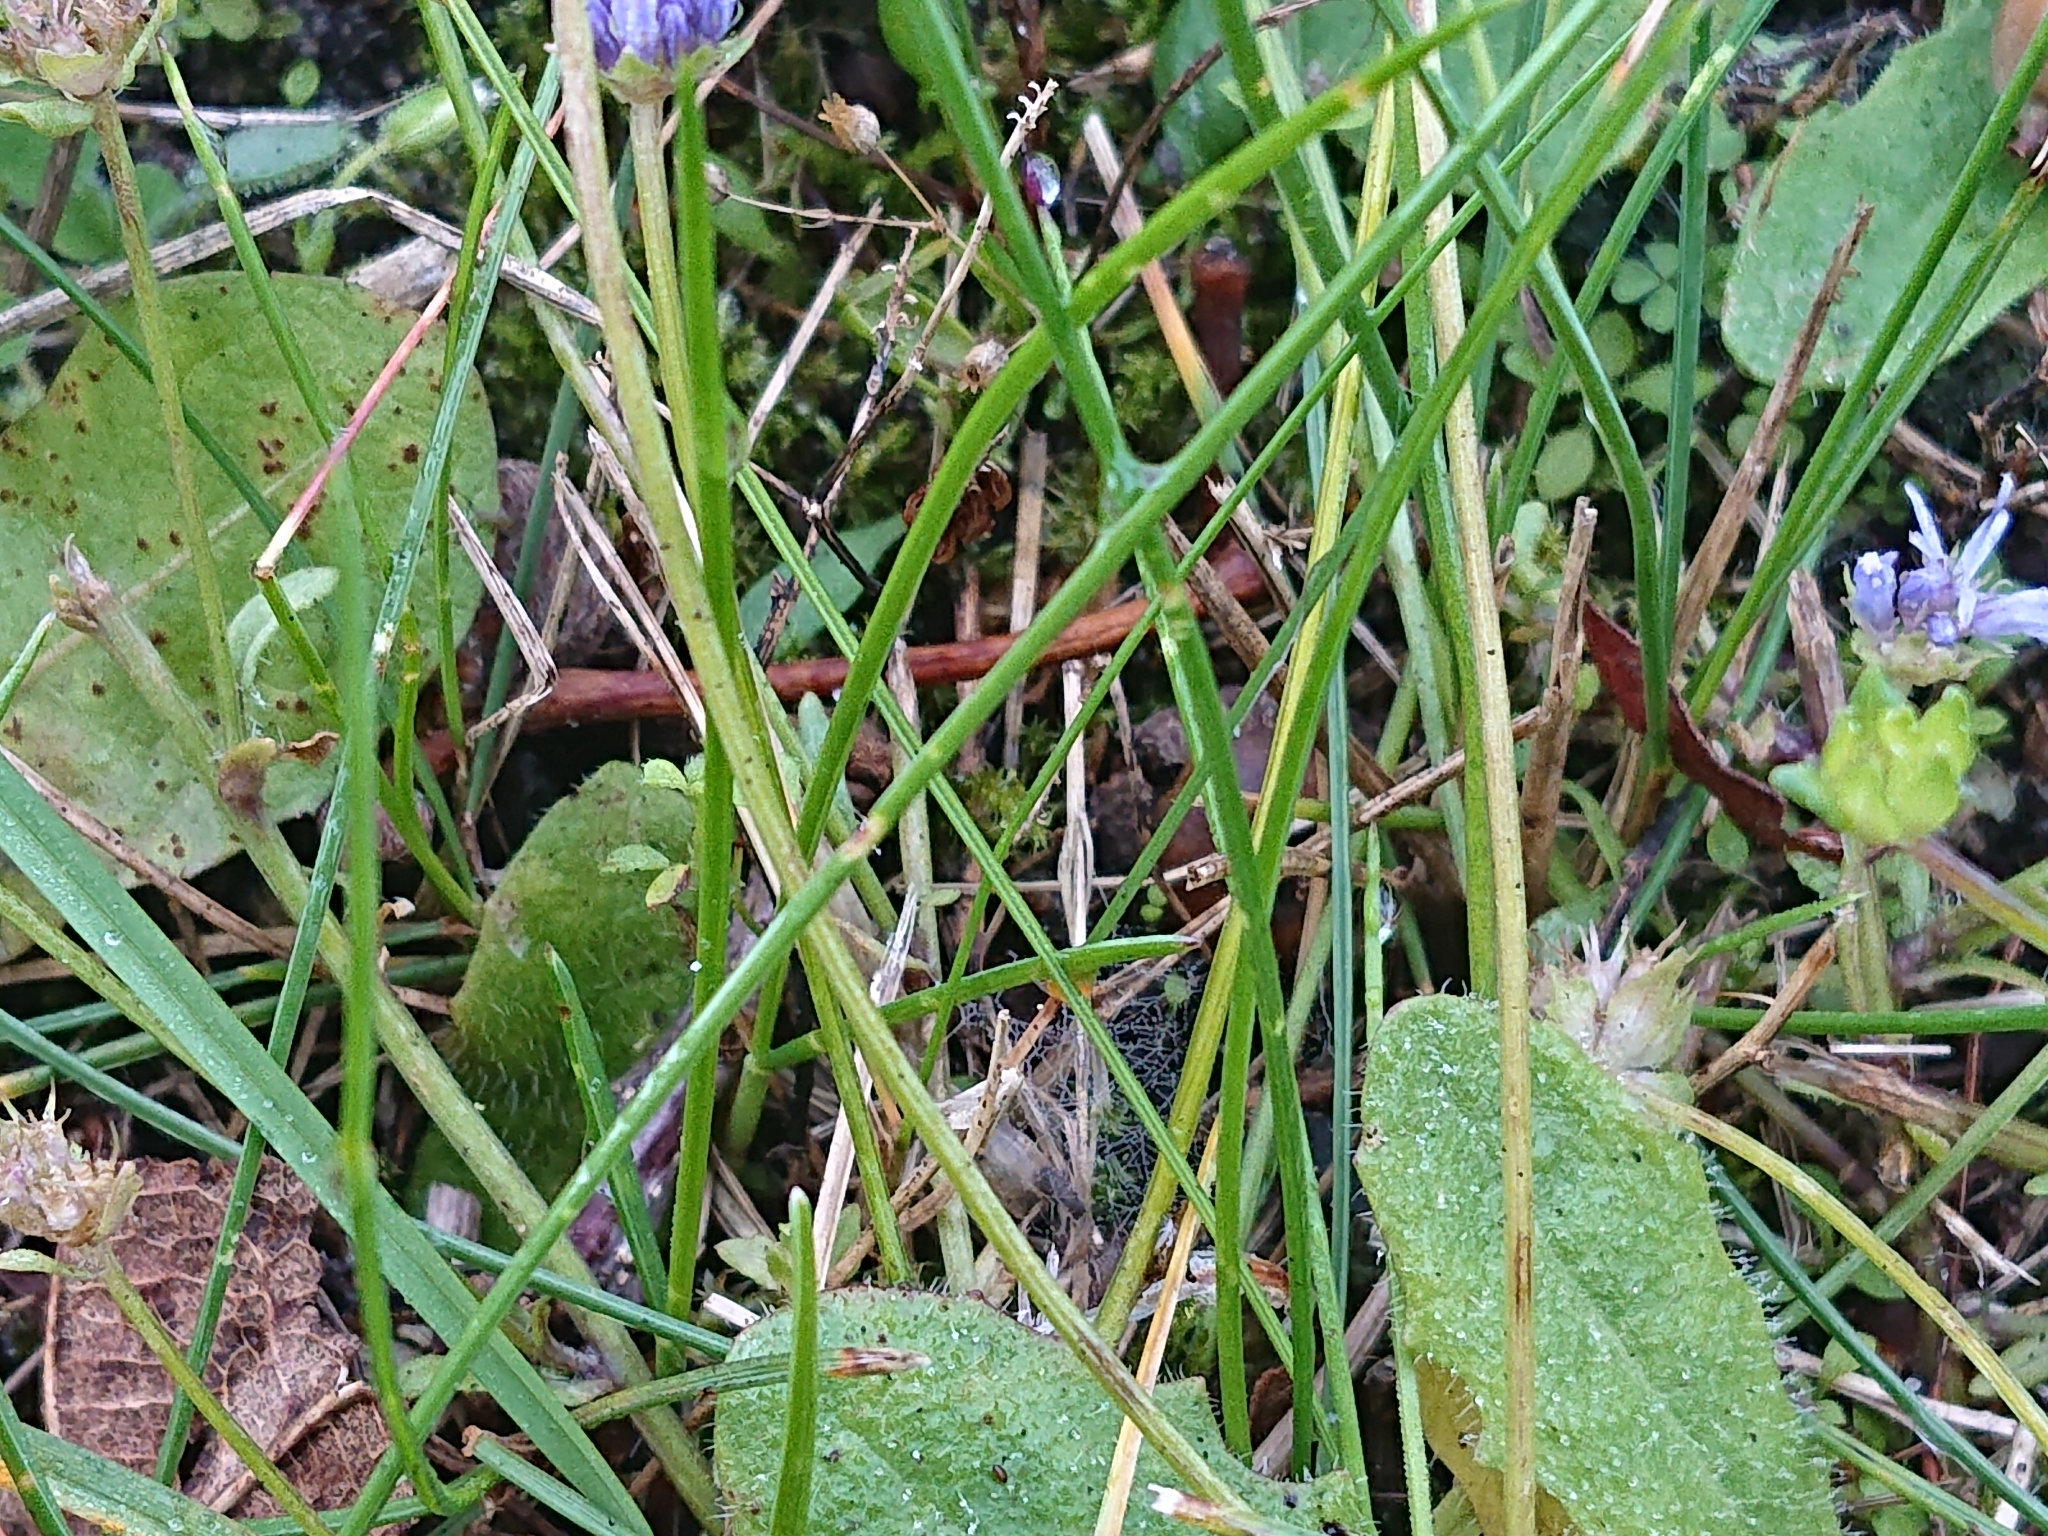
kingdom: Plantae
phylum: Tracheophyta
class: Magnoliopsida
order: Asterales
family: Campanulaceae
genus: Jasione
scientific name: Jasione montana
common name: Sheep's-bit
